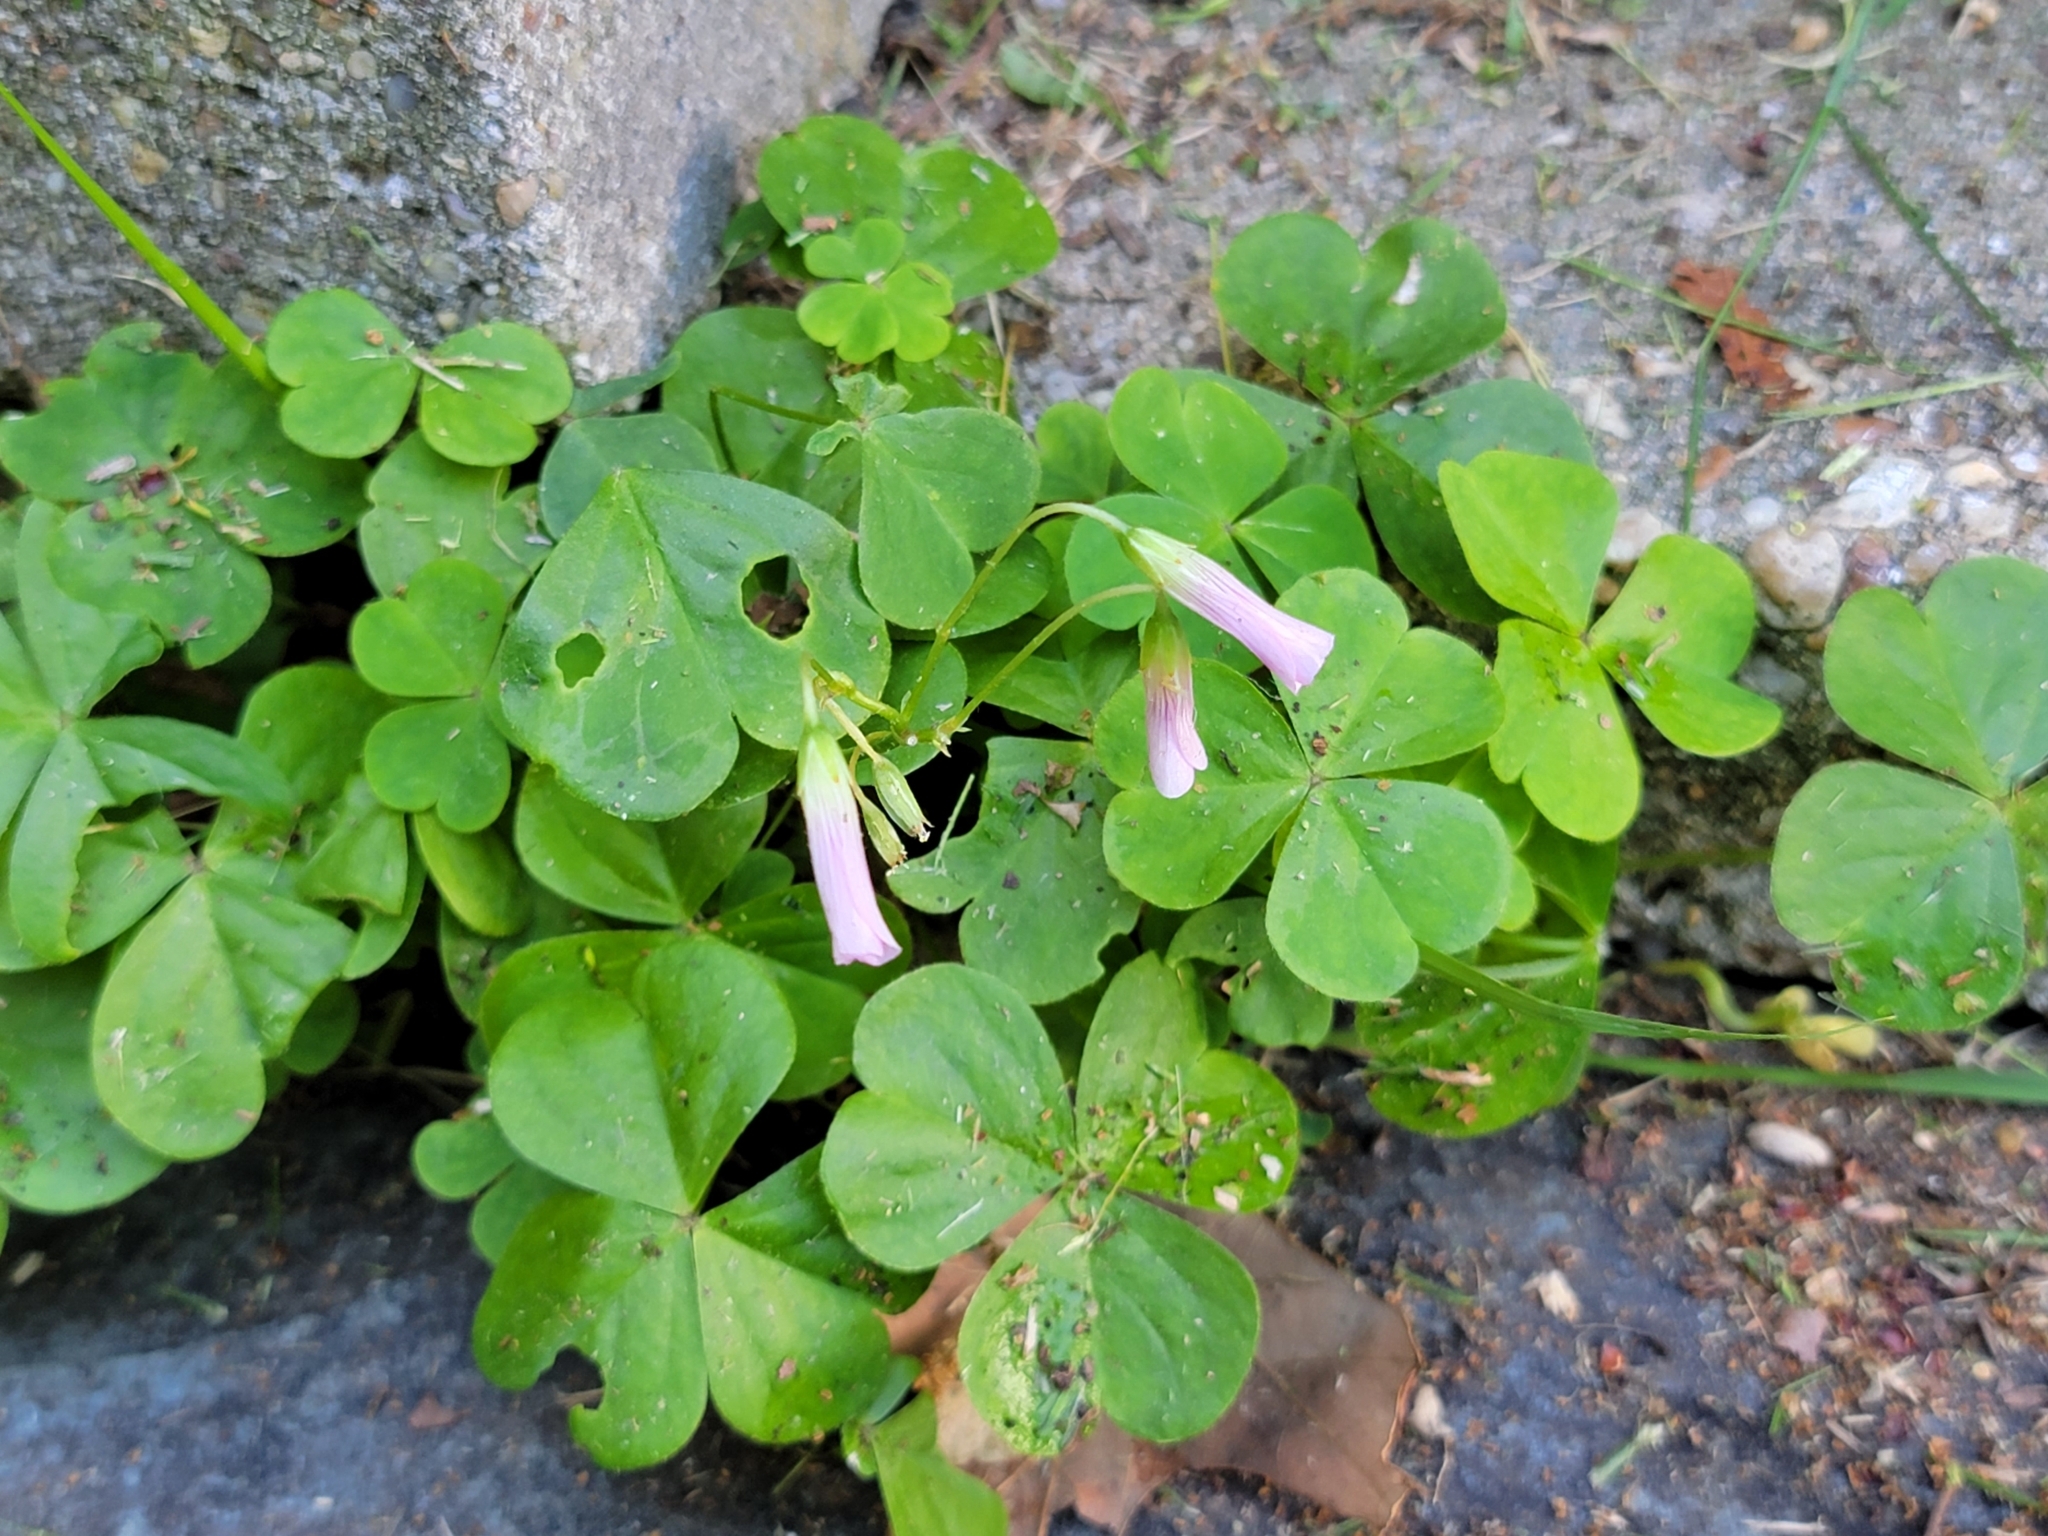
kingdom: Plantae
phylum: Tracheophyta
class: Magnoliopsida
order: Oxalidales
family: Oxalidaceae
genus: Oxalis
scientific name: Oxalis debilis
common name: Large-flowered pink-sorrel
